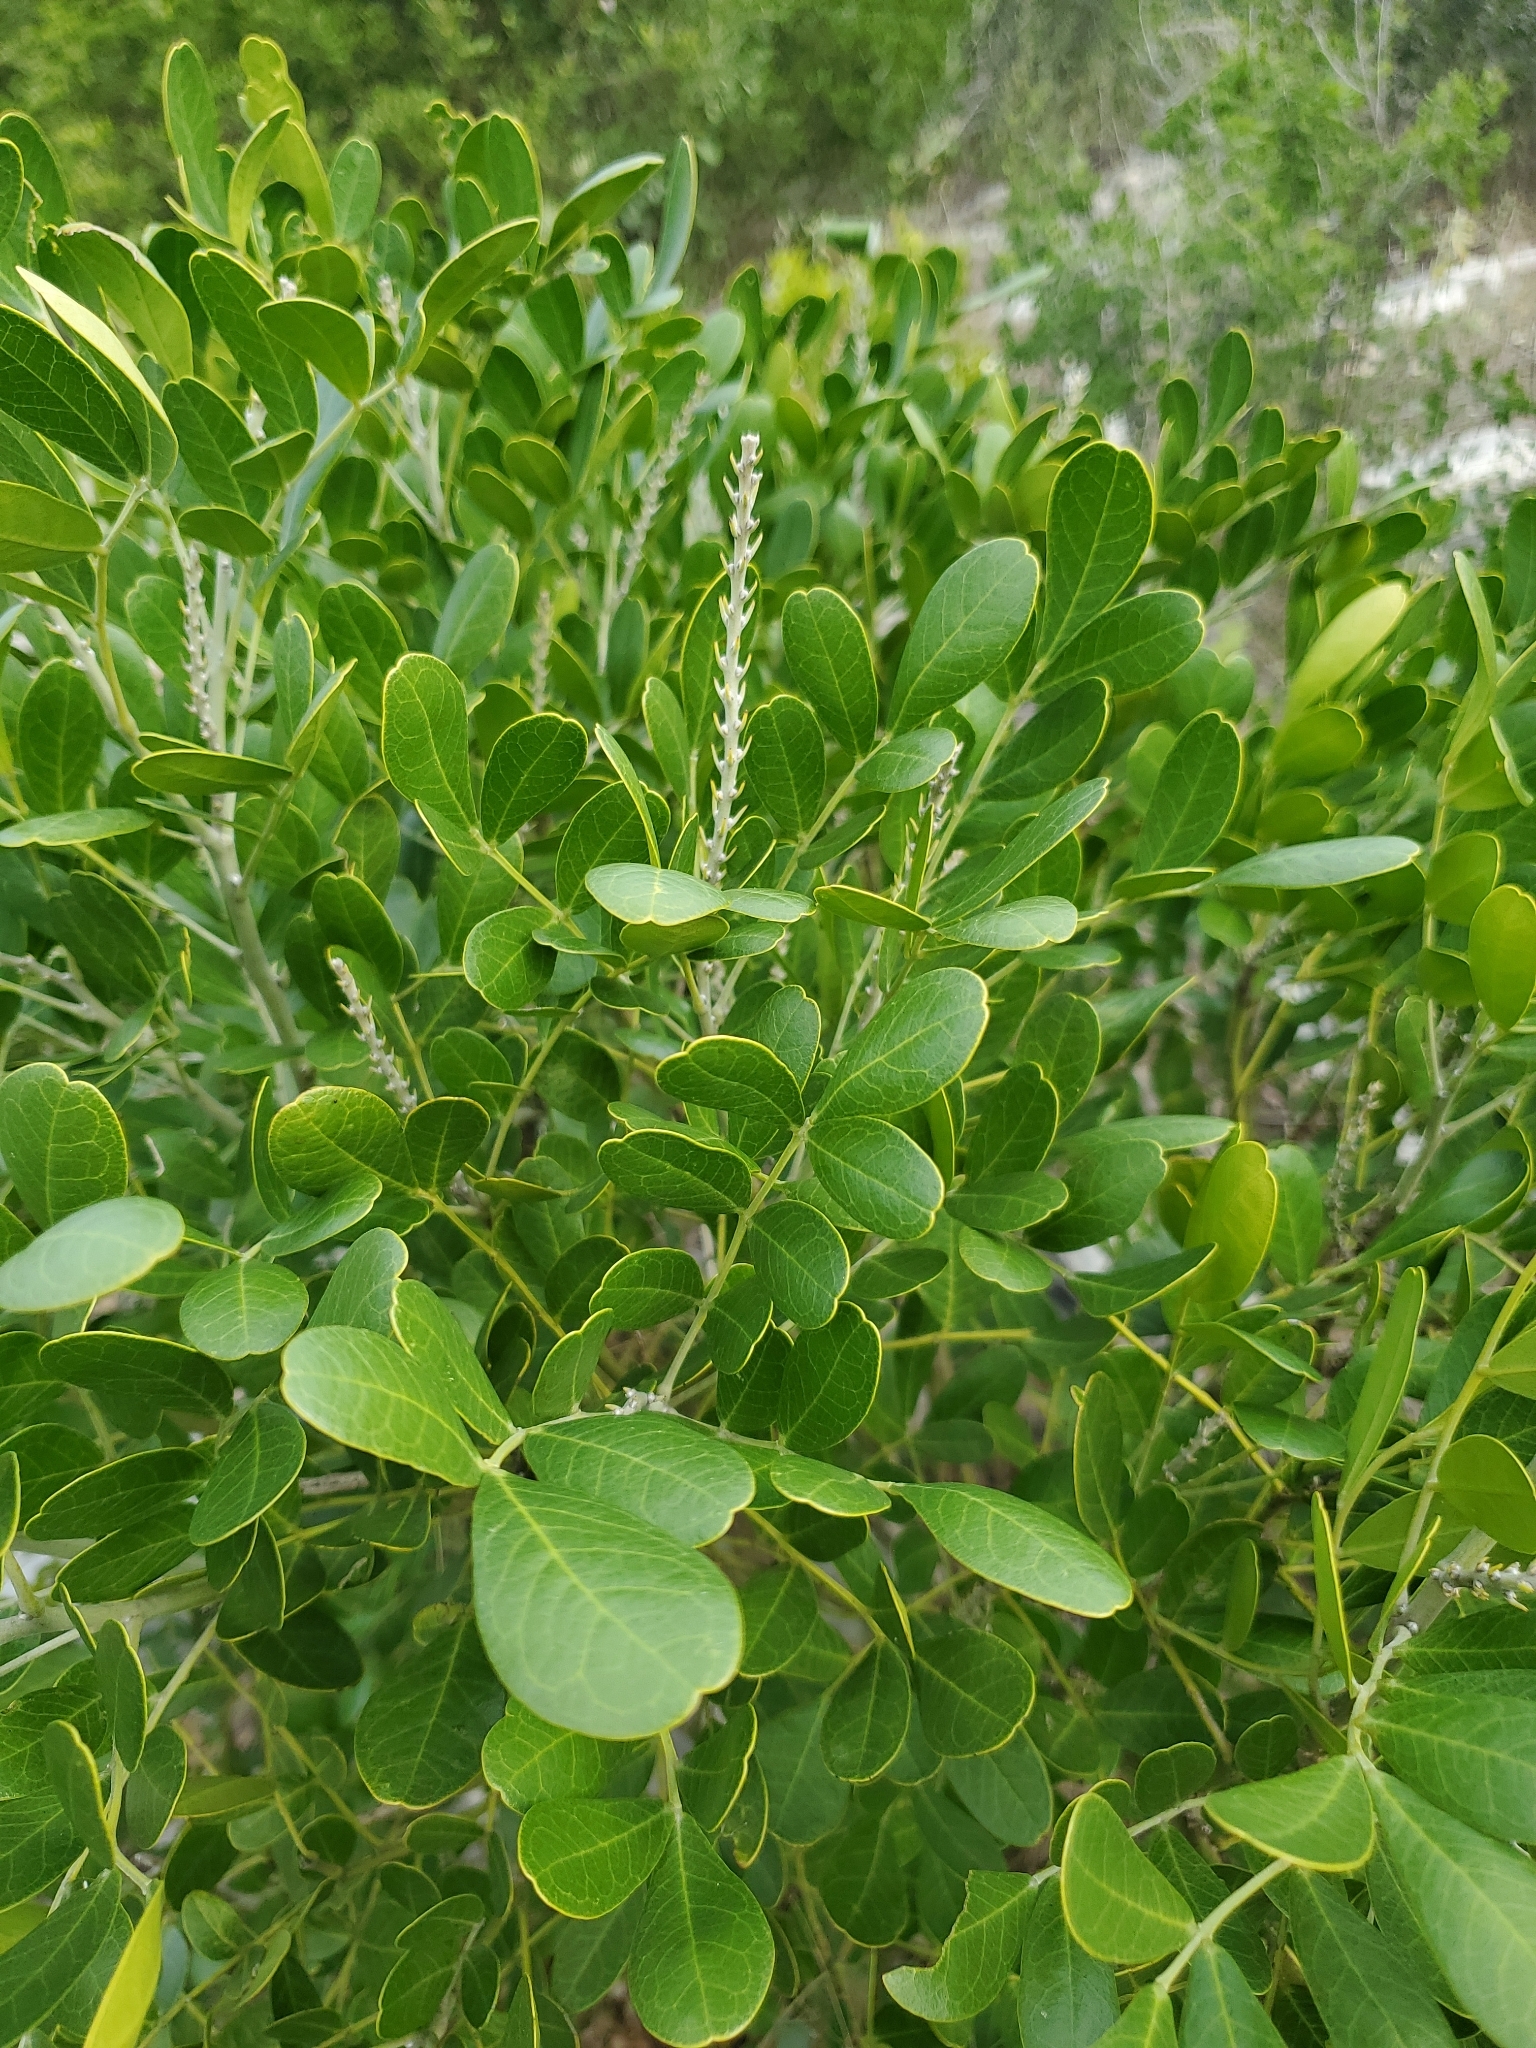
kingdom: Plantae
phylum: Tracheophyta
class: Magnoliopsida
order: Fabales
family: Fabaceae
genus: Dermatophyllum
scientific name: Dermatophyllum secundiflorum
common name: Texas-mountain-laurel
